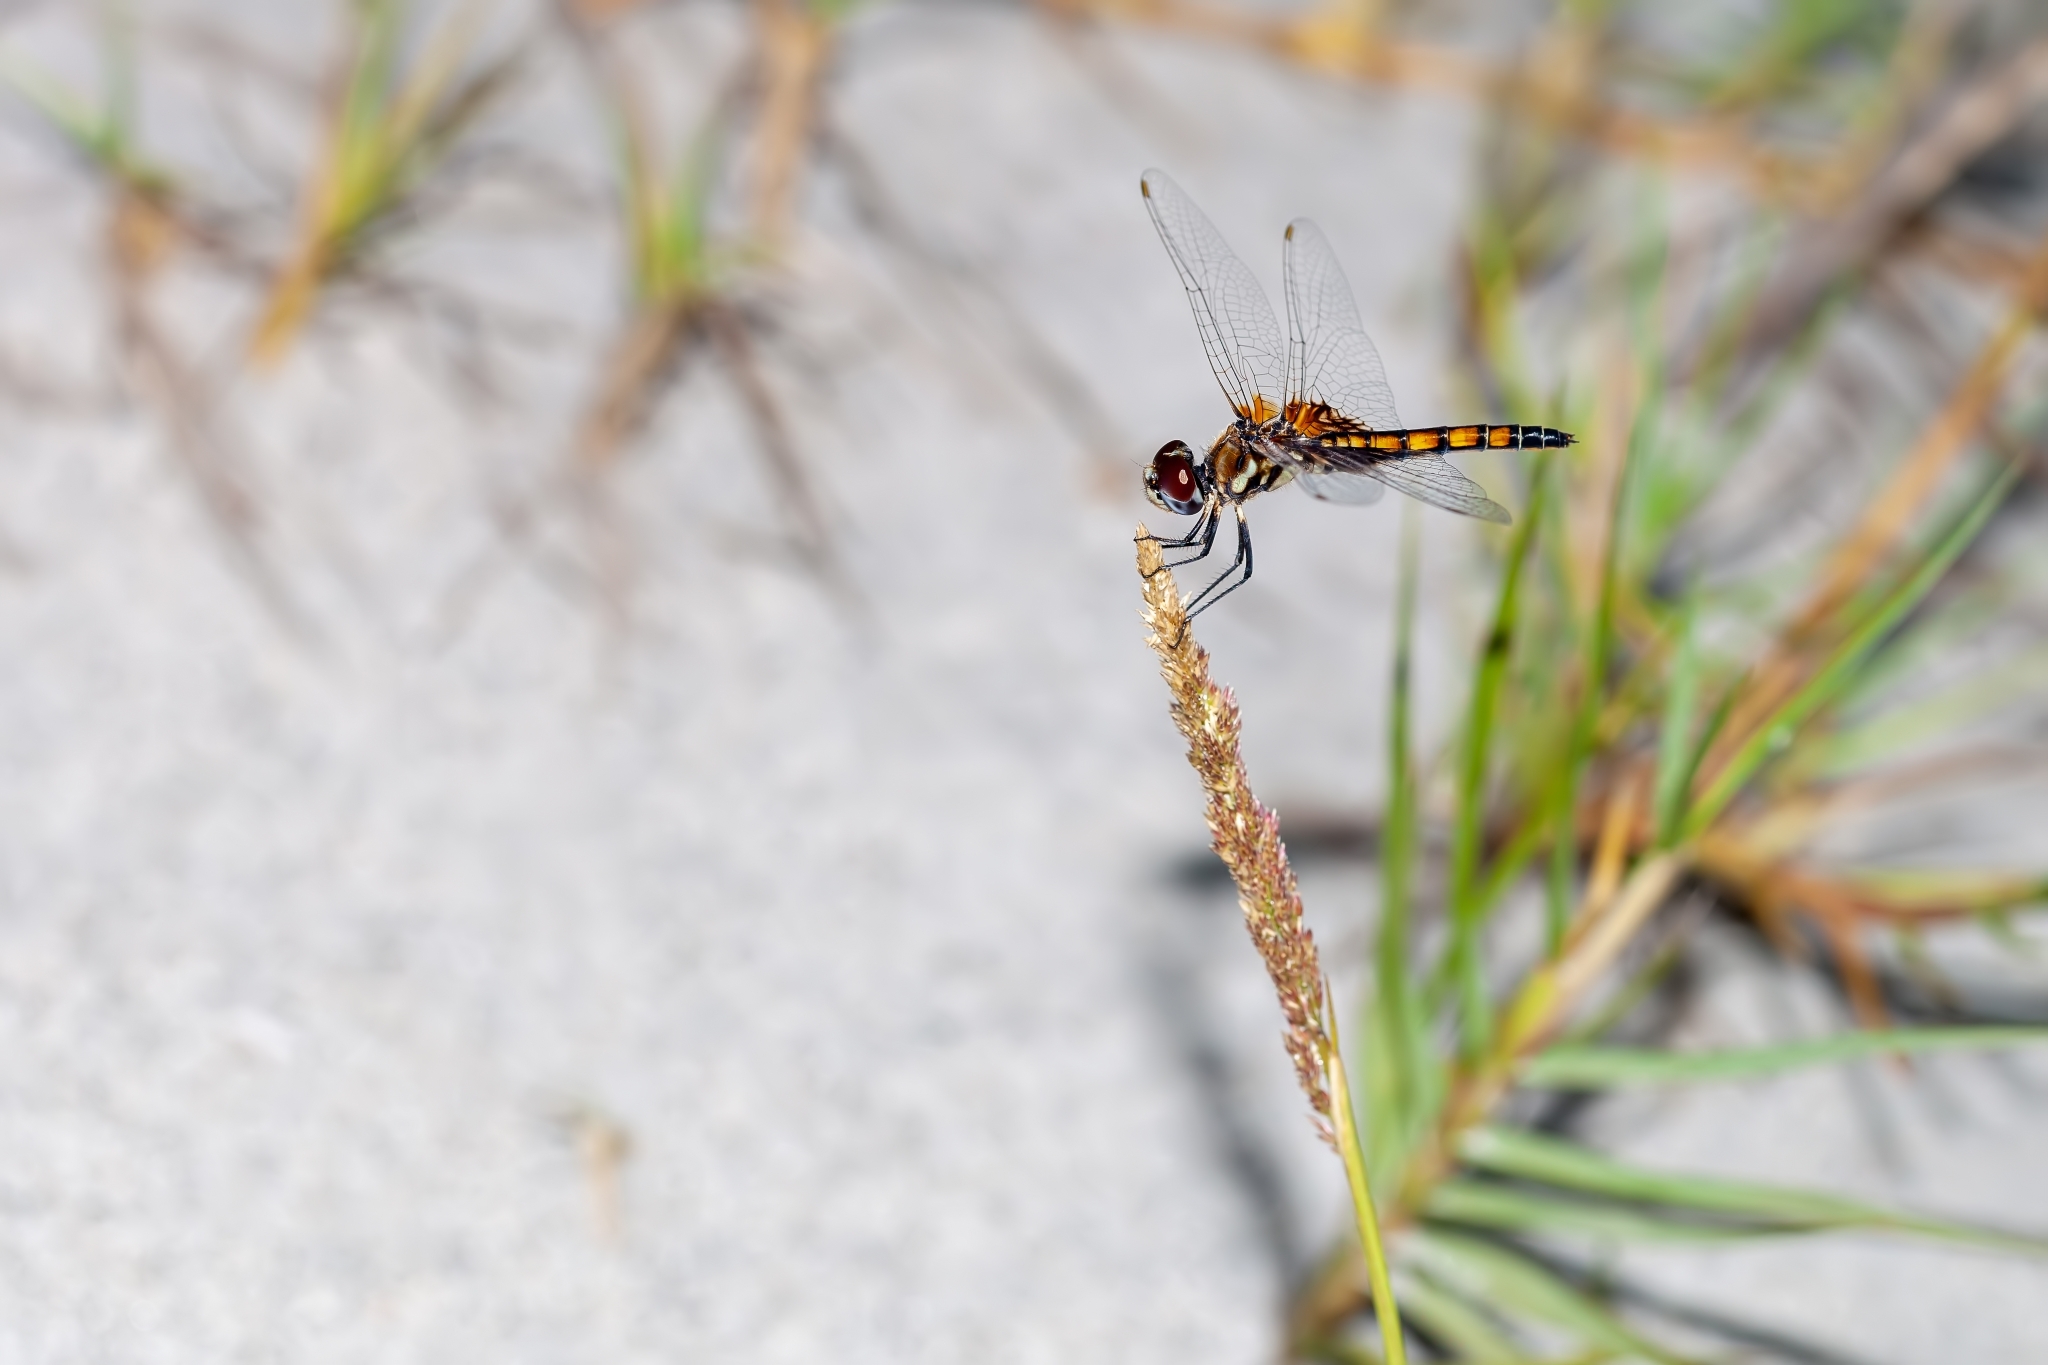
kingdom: Animalia
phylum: Arthropoda
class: Insecta
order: Odonata
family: Libellulidae
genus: Macrodiplax
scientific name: Macrodiplax balteata
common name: Marl pennant
